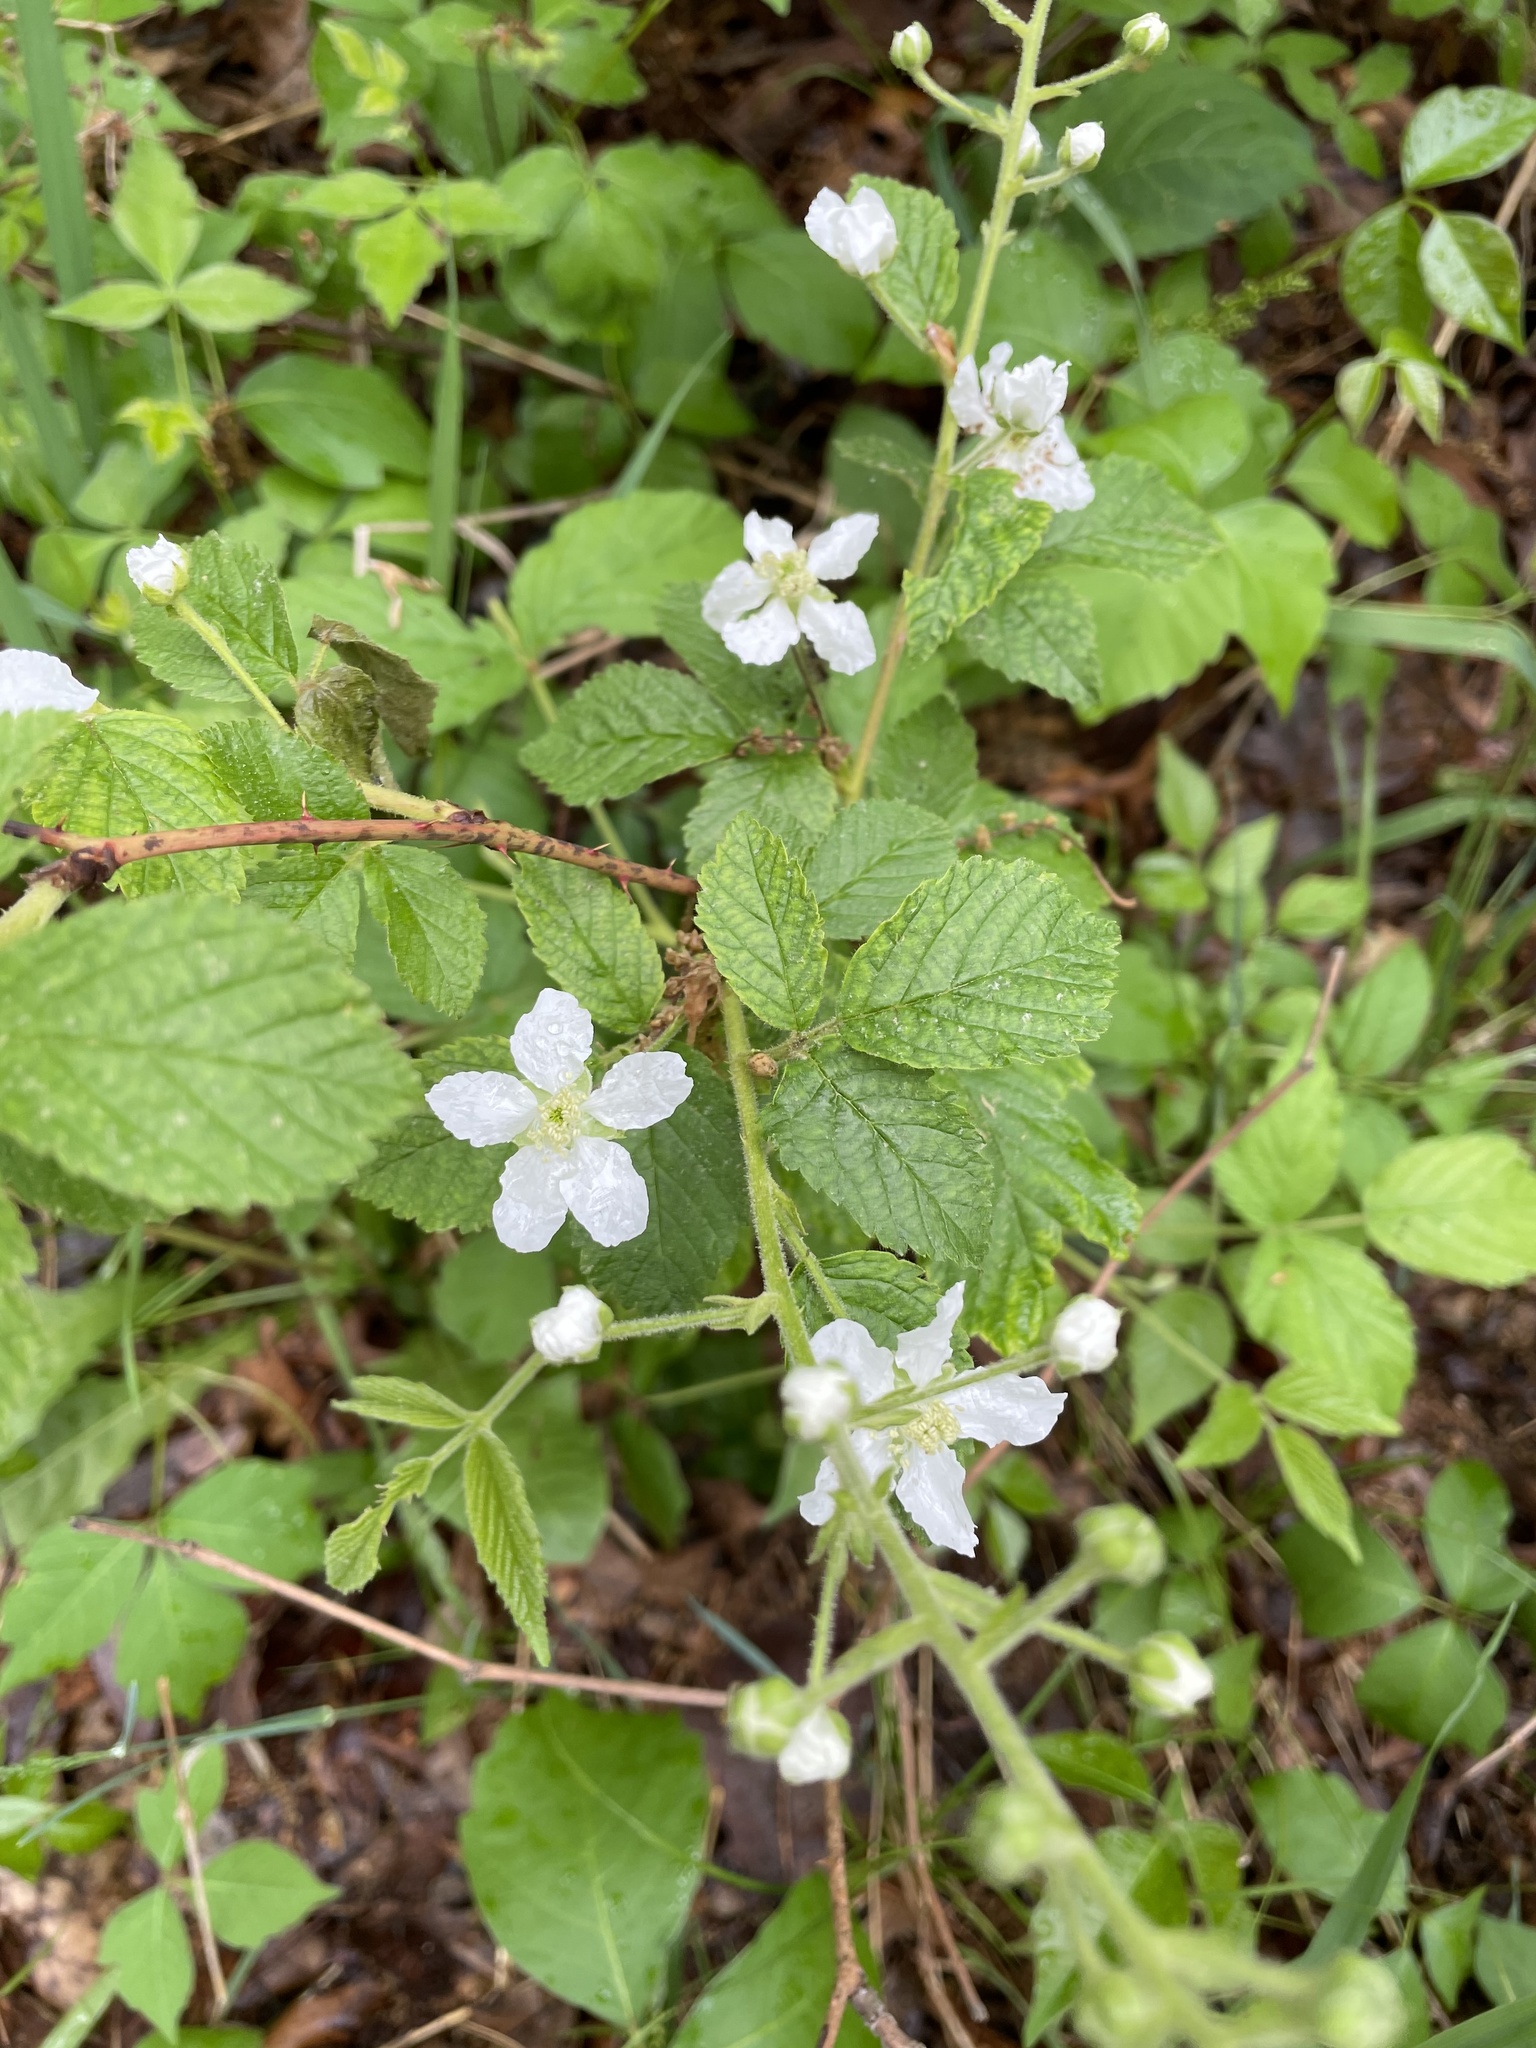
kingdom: Plantae
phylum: Tracheophyta
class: Magnoliopsida
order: Rosales
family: Rosaceae
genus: Rubus
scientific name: Rubus allegheniensis
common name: Allegheny blackberry
